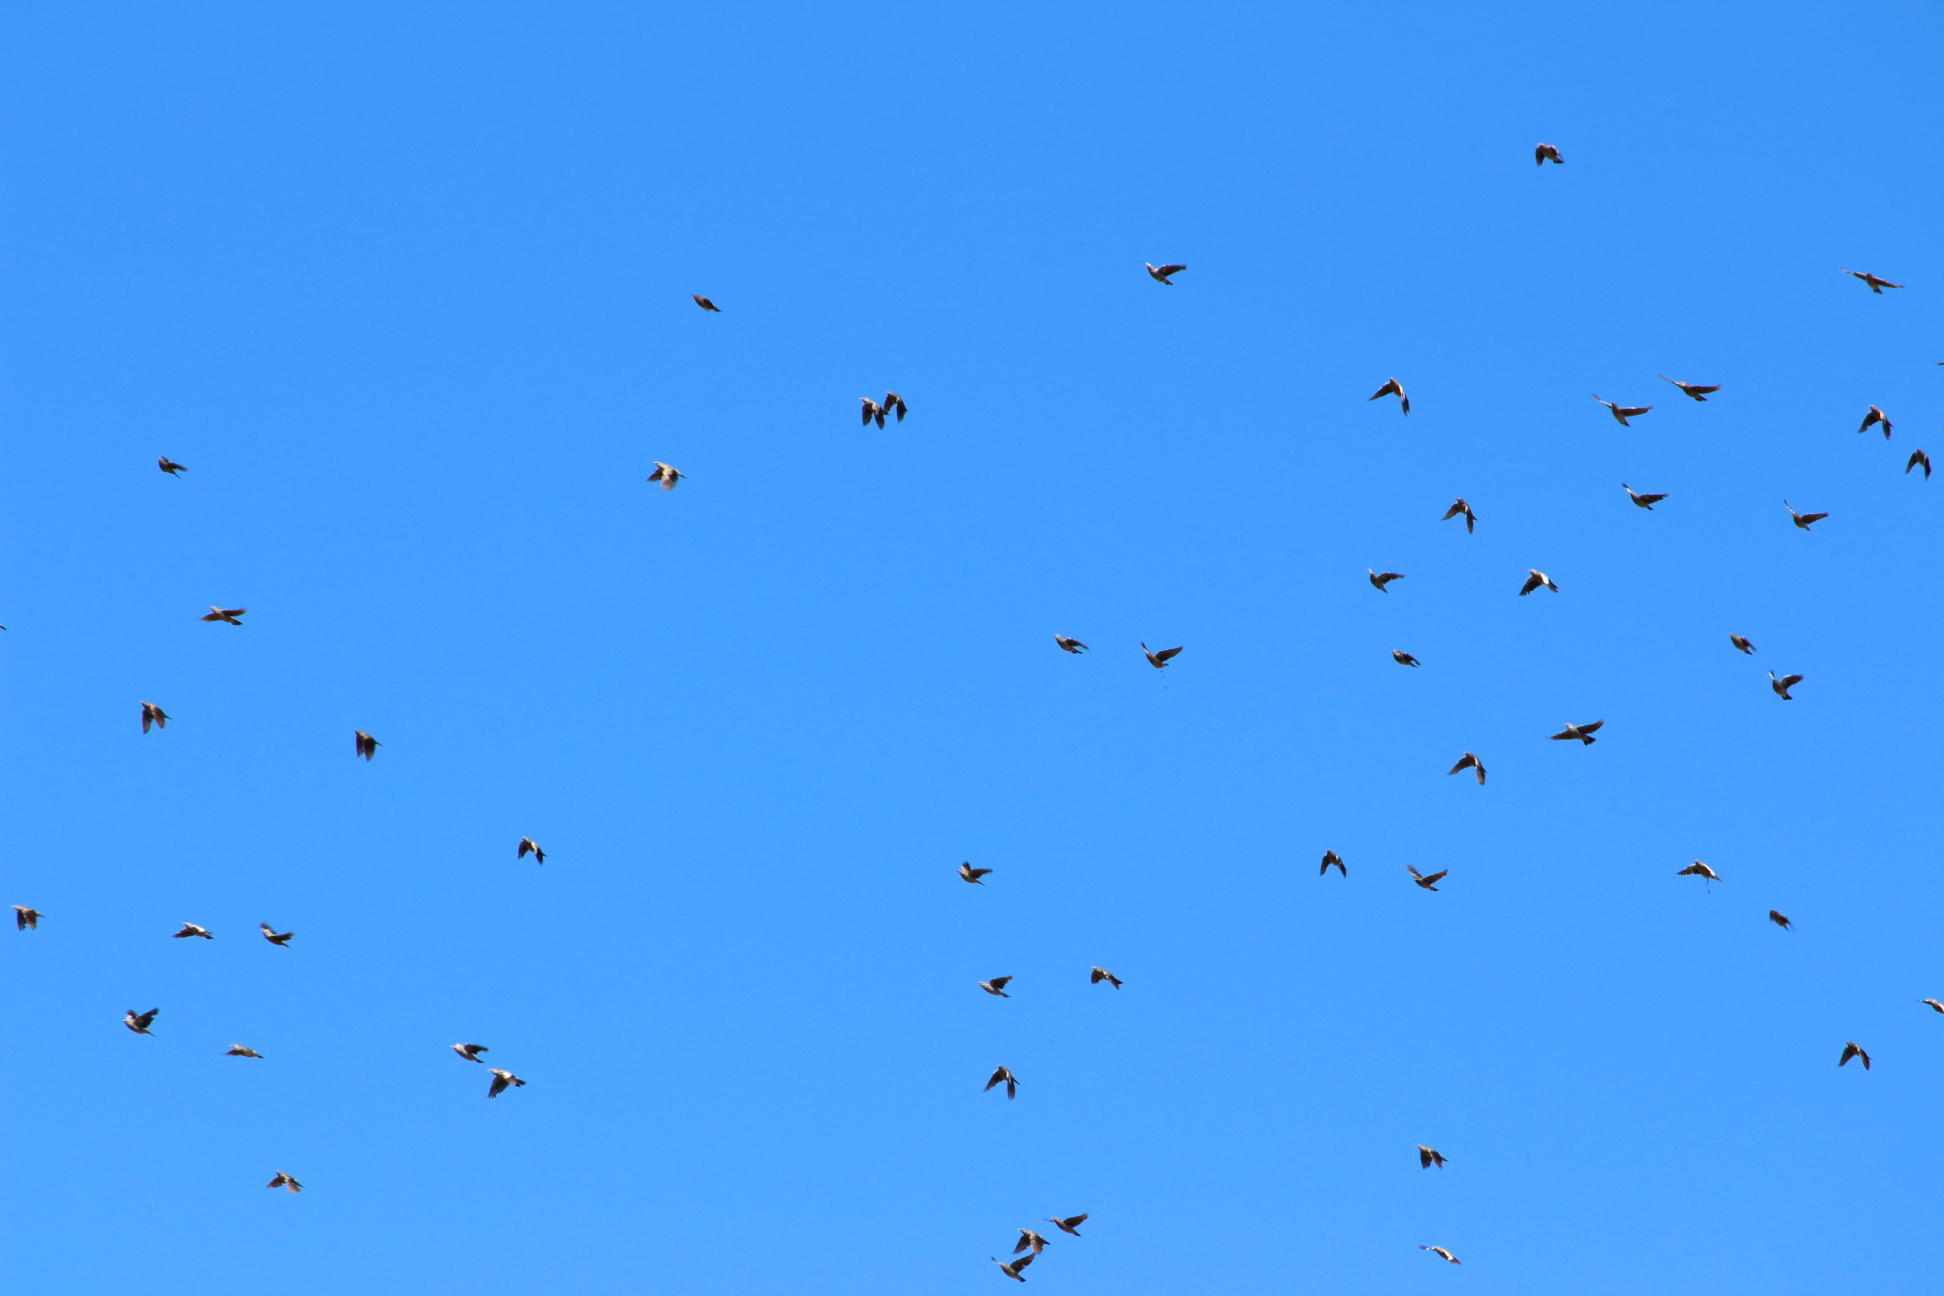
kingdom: Animalia
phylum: Chordata
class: Aves
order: Passeriformes
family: Sturnidae
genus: Creatophora
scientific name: Creatophora cinerea
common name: Wattled starling
